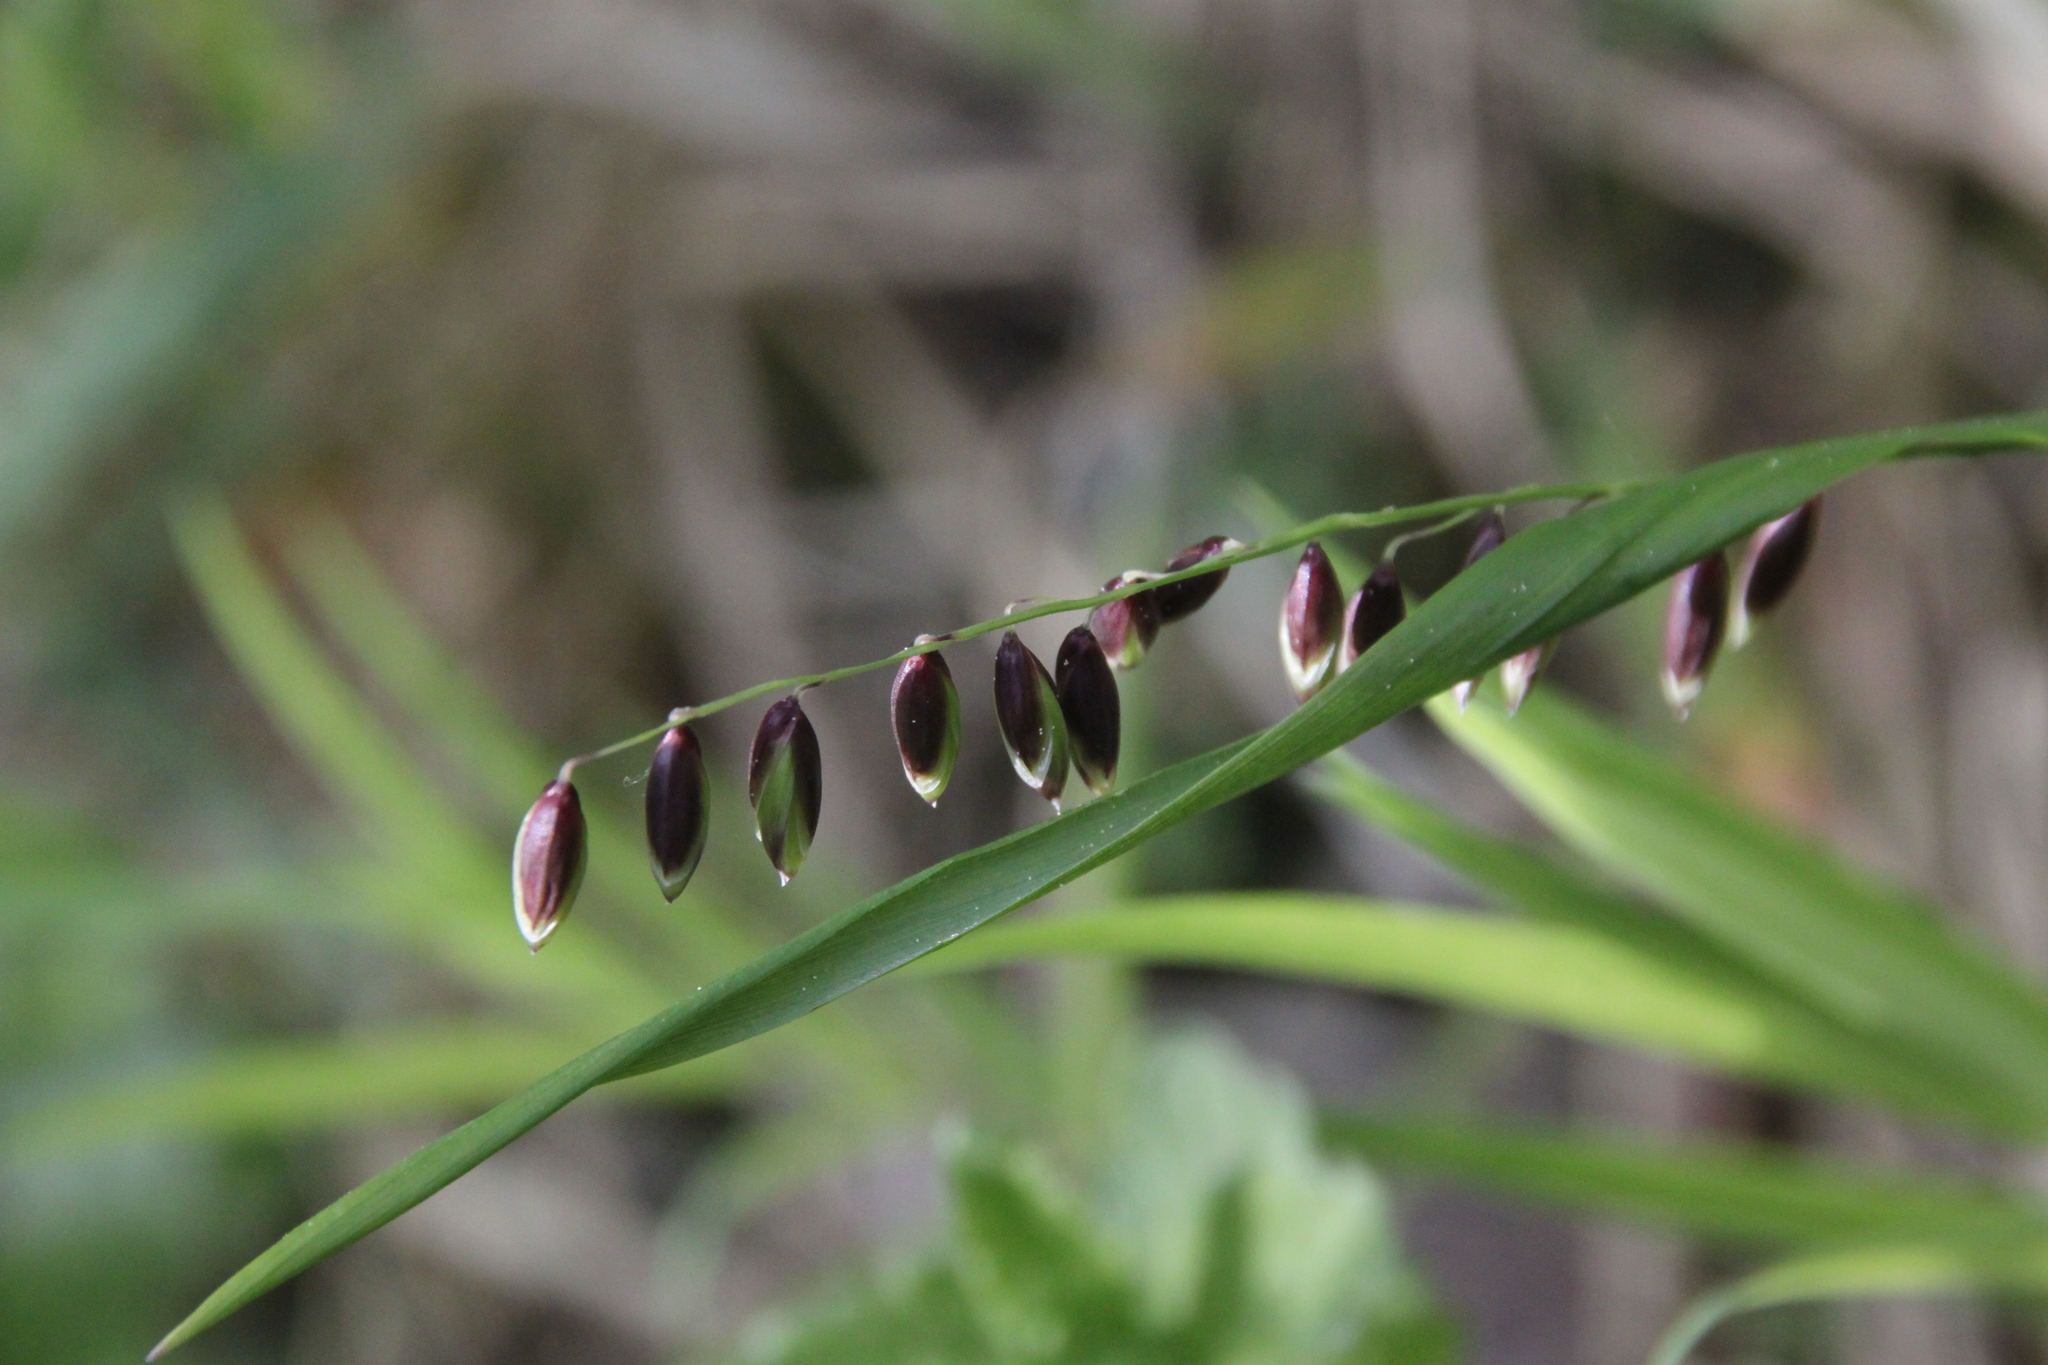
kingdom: Plantae
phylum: Tracheophyta
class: Liliopsida
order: Poales
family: Poaceae
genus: Melica
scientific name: Melica nutans
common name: Mountain melick
